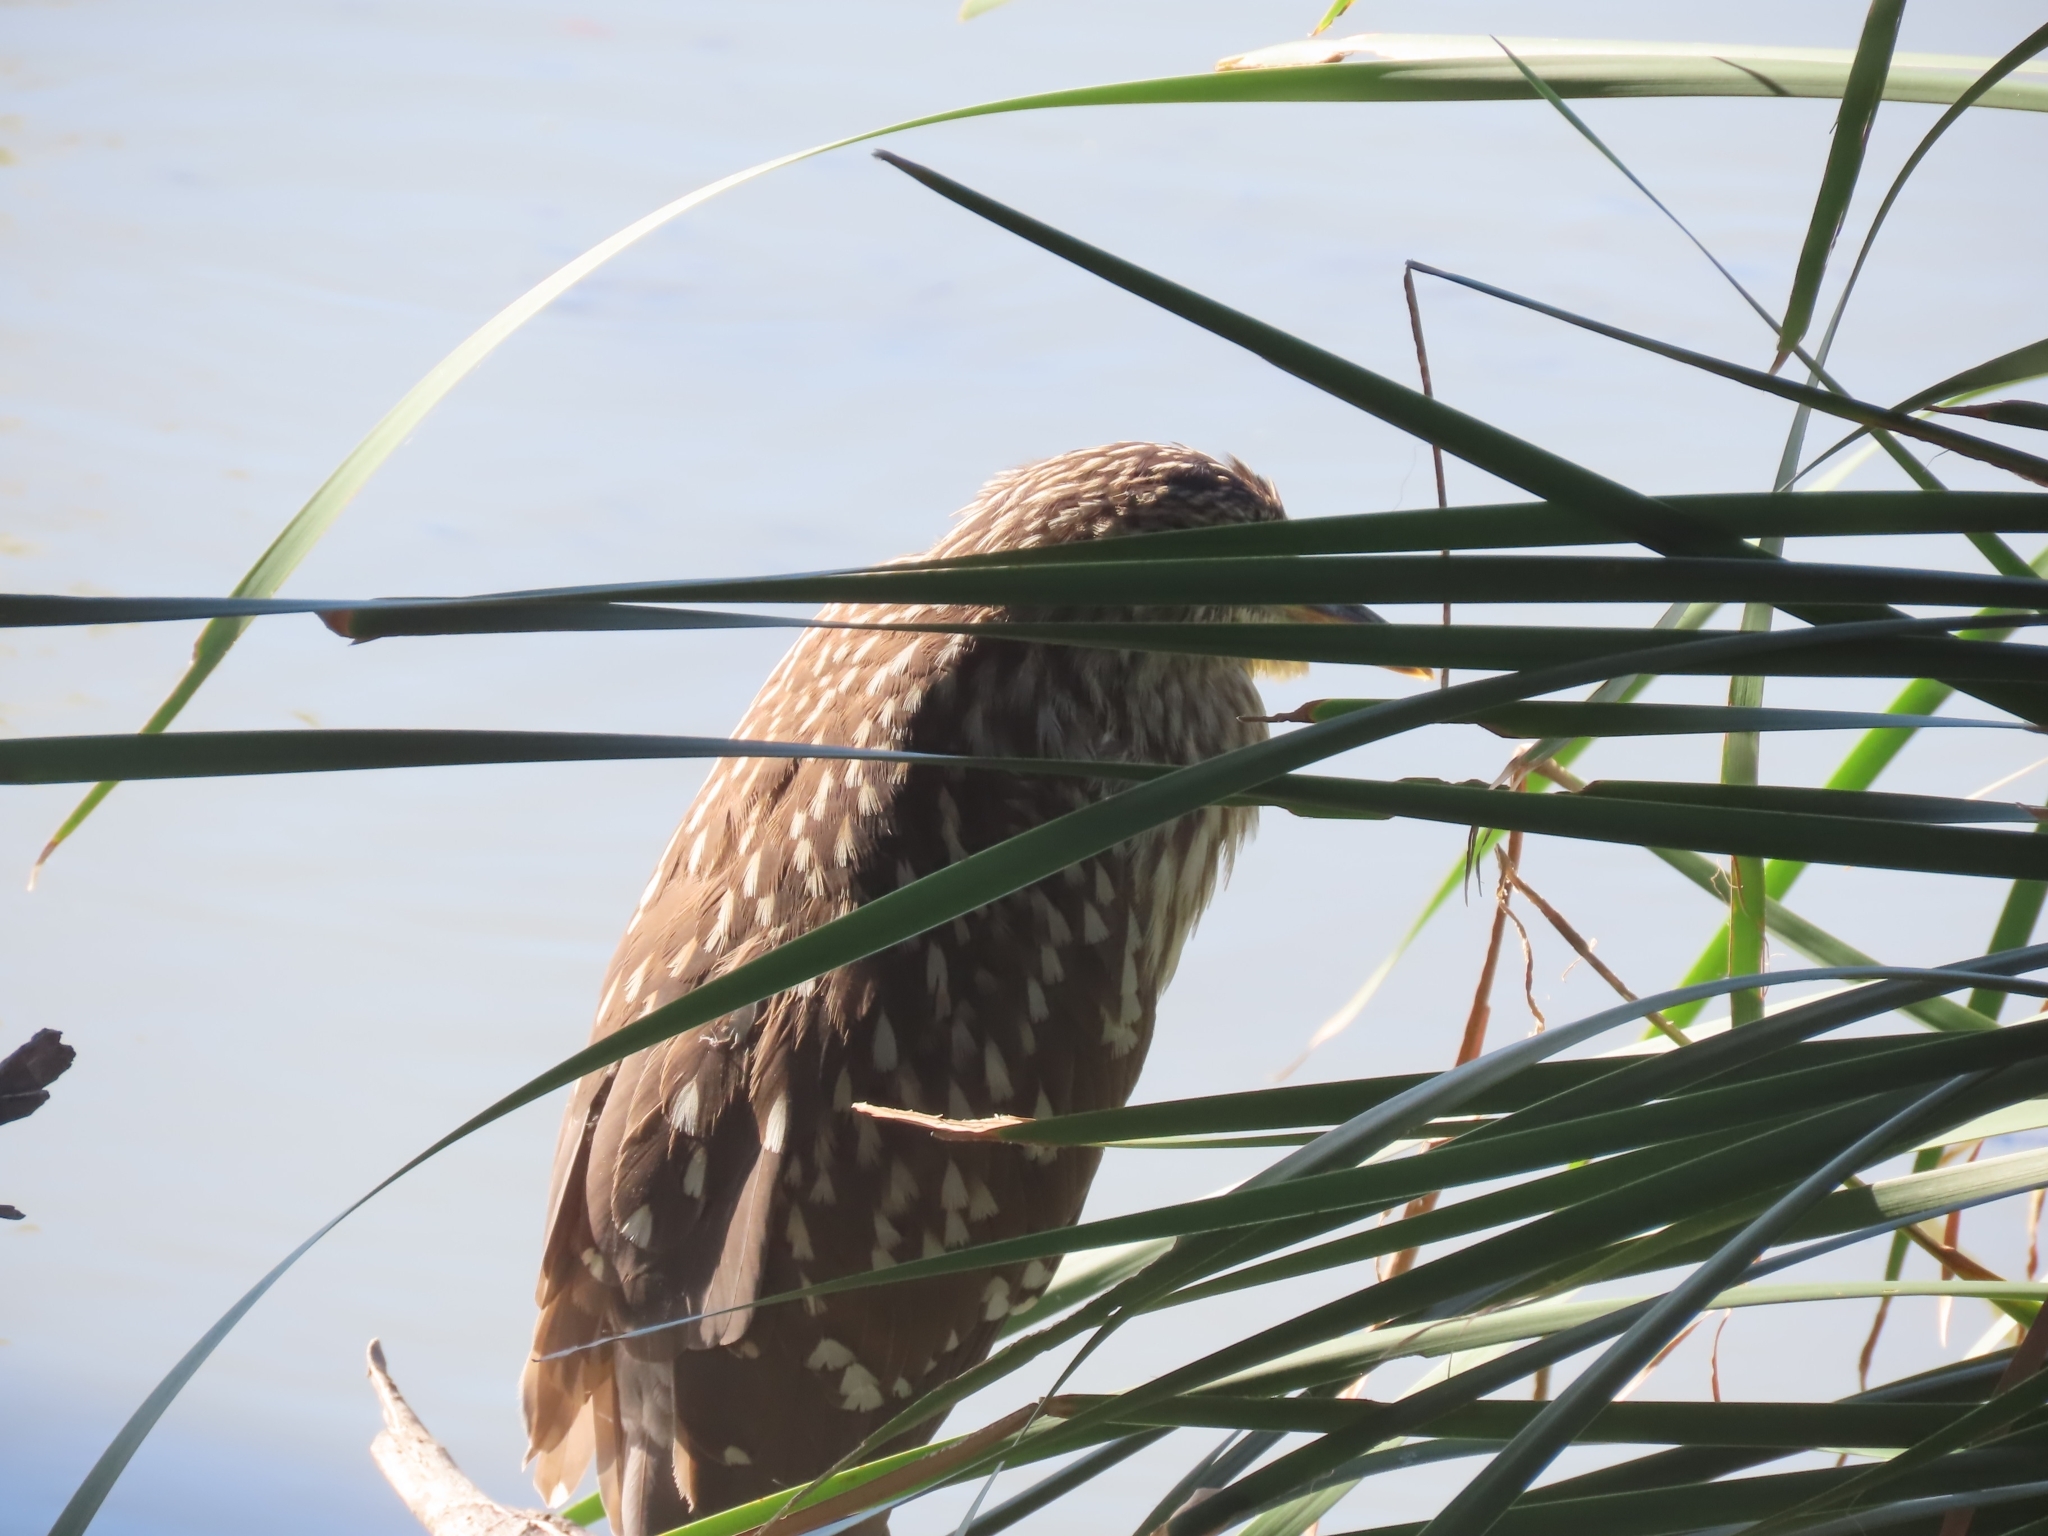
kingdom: Animalia
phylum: Chordata
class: Aves
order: Pelecaniformes
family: Ardeidae
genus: Nycticorax
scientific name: Nycticorax nycticorax
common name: Black-crowned night heron
